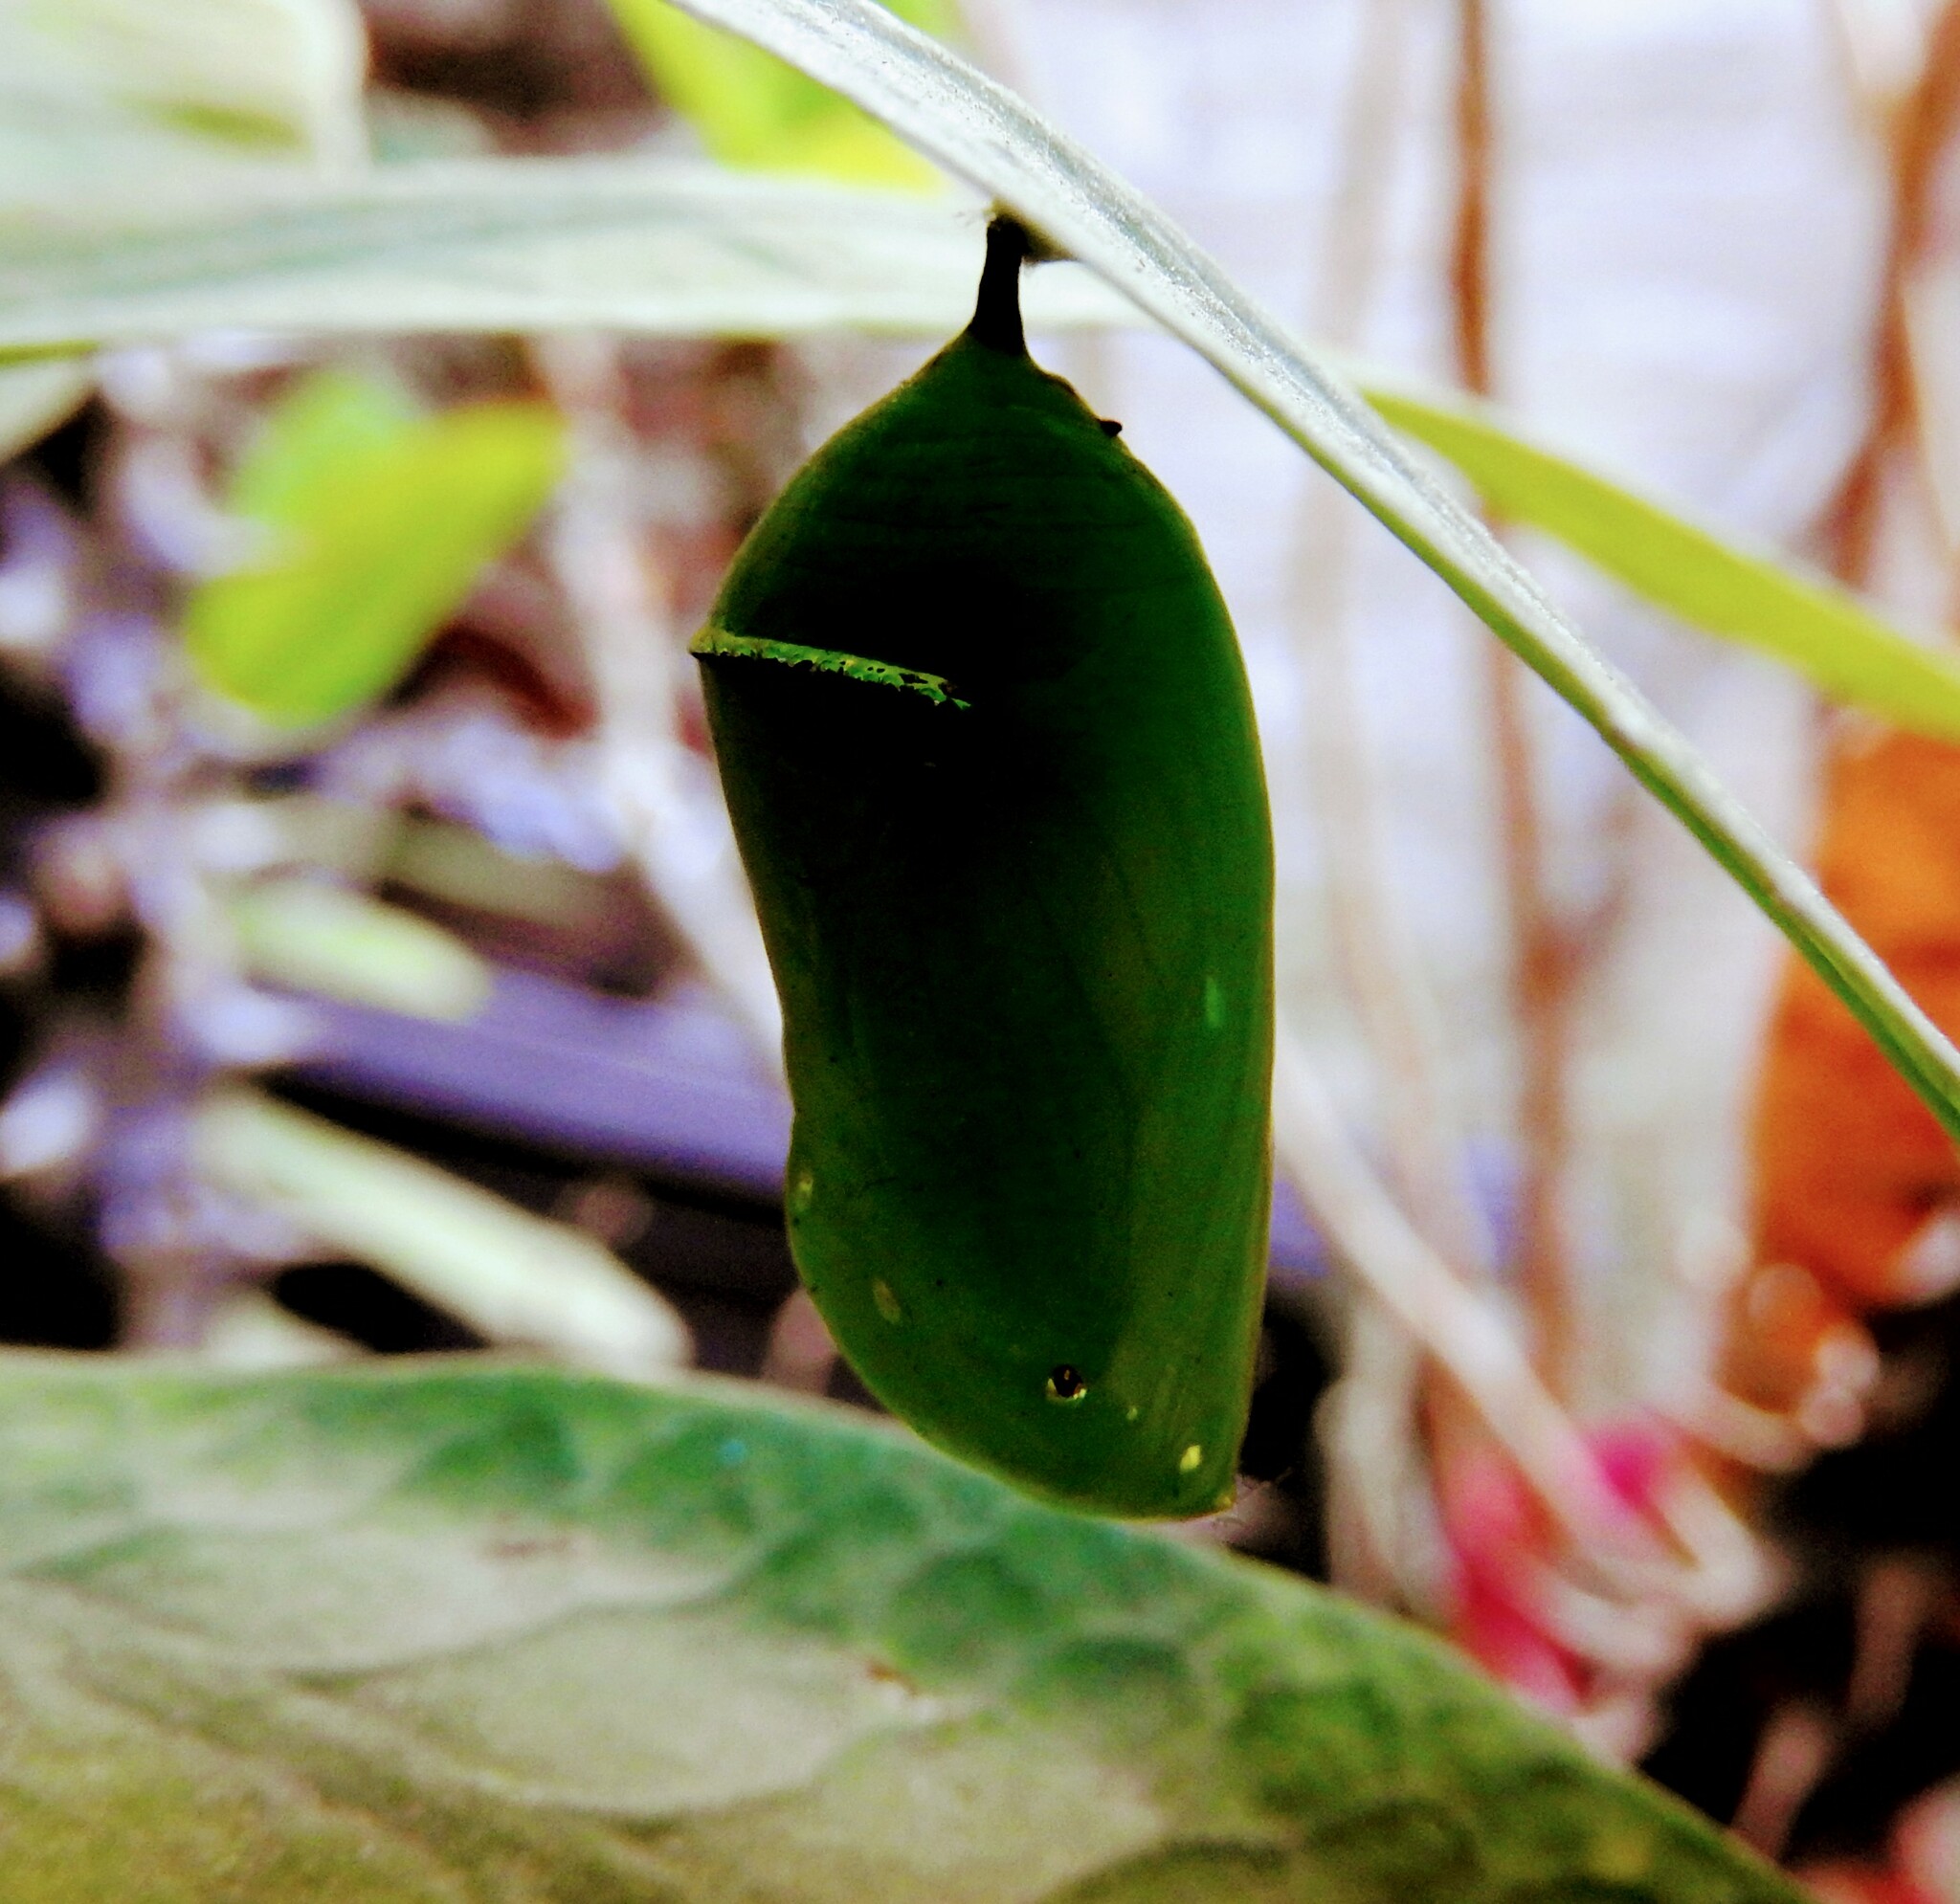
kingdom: Animalia
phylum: Arthropoda
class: Insecta
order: Lepidoptera
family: Nymphalidae
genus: Danaus
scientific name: Danaus plexippus
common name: Monarch
